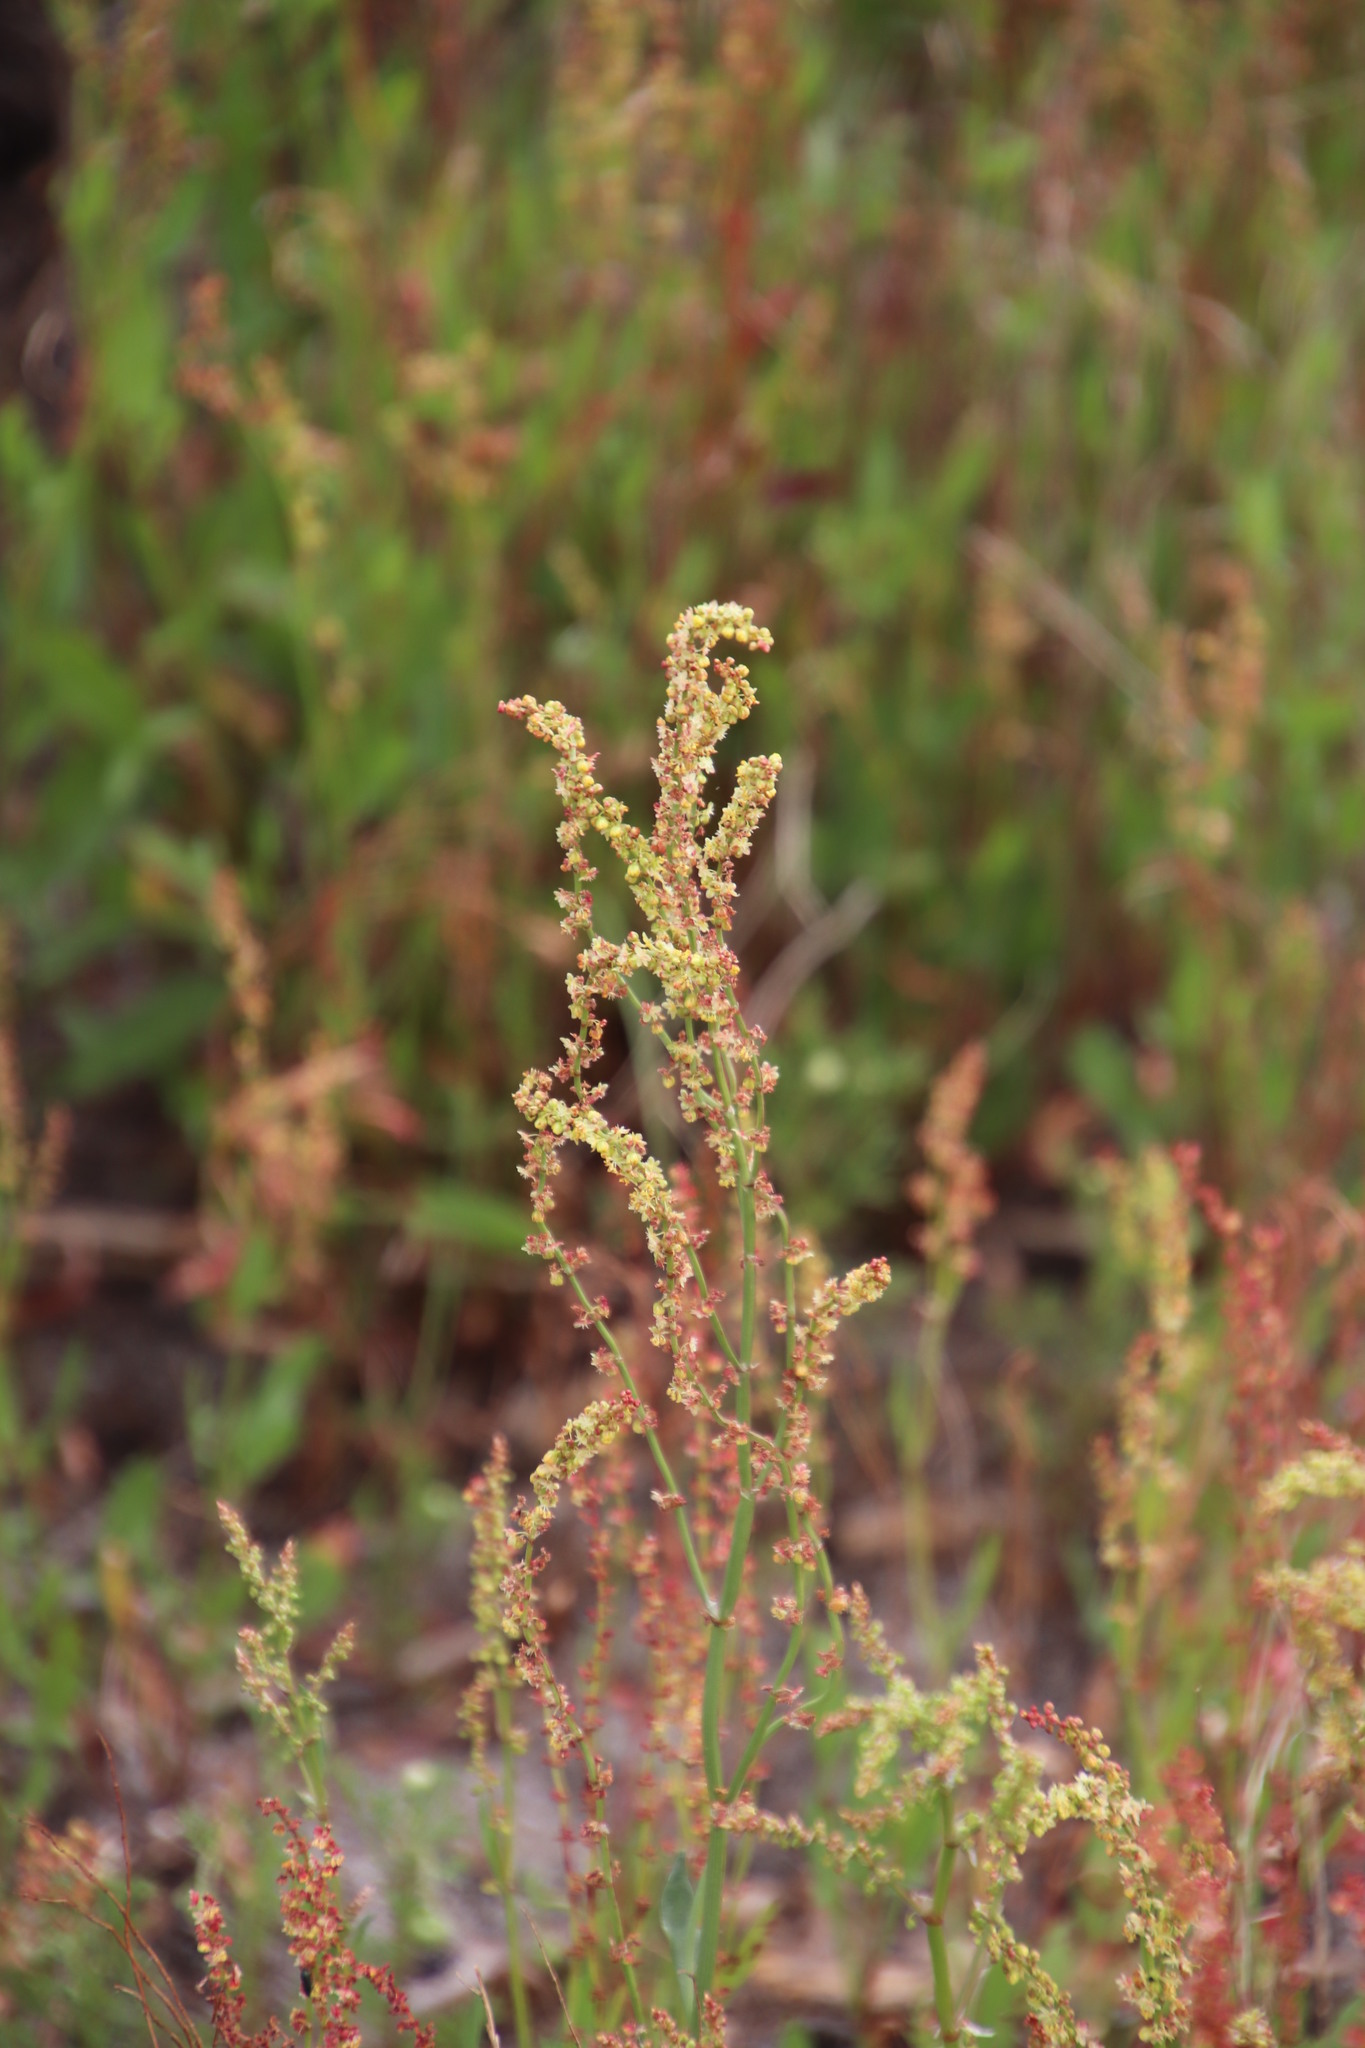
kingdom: Plantae
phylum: Tracheophyta
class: Magnoliopsida
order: Caryophyllales
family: Polygonaceae
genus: Rumex
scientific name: Rumex acetosella
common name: Common sheep sorrel
